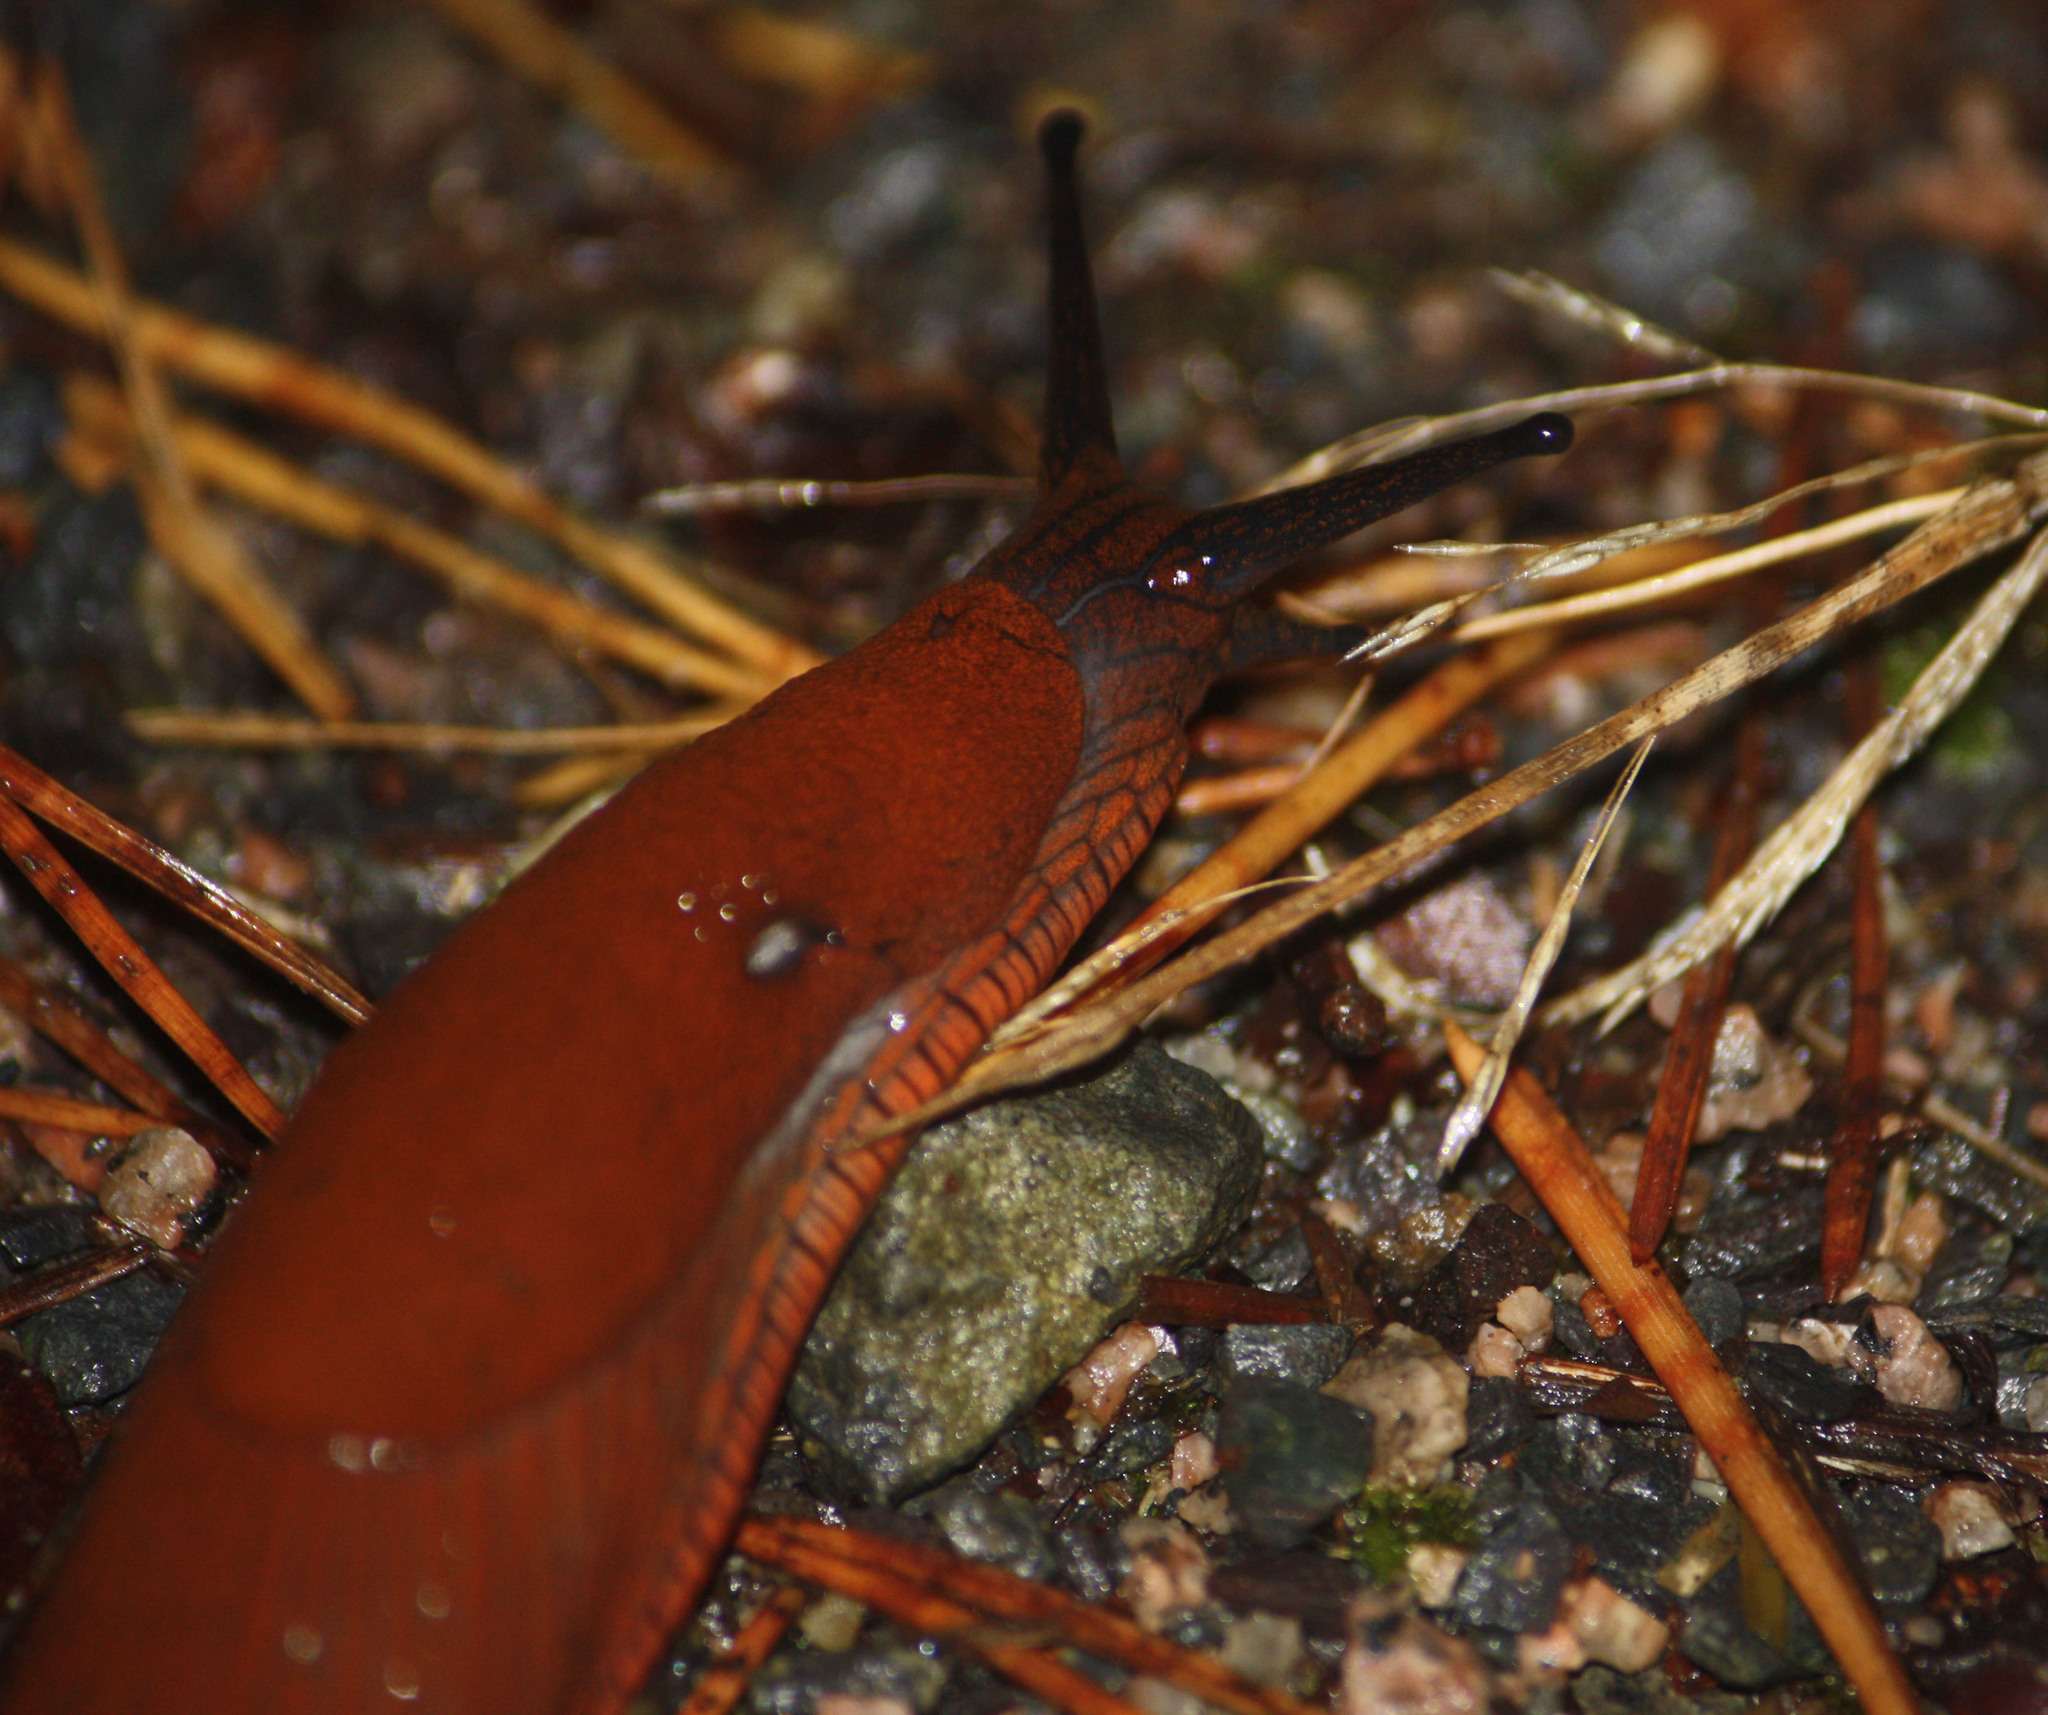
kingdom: Animalia
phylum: Mollusca
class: Gastropoda
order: Stylommatophora
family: Arionidae
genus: Arion
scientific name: Arion rufus
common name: Chocolate arion
